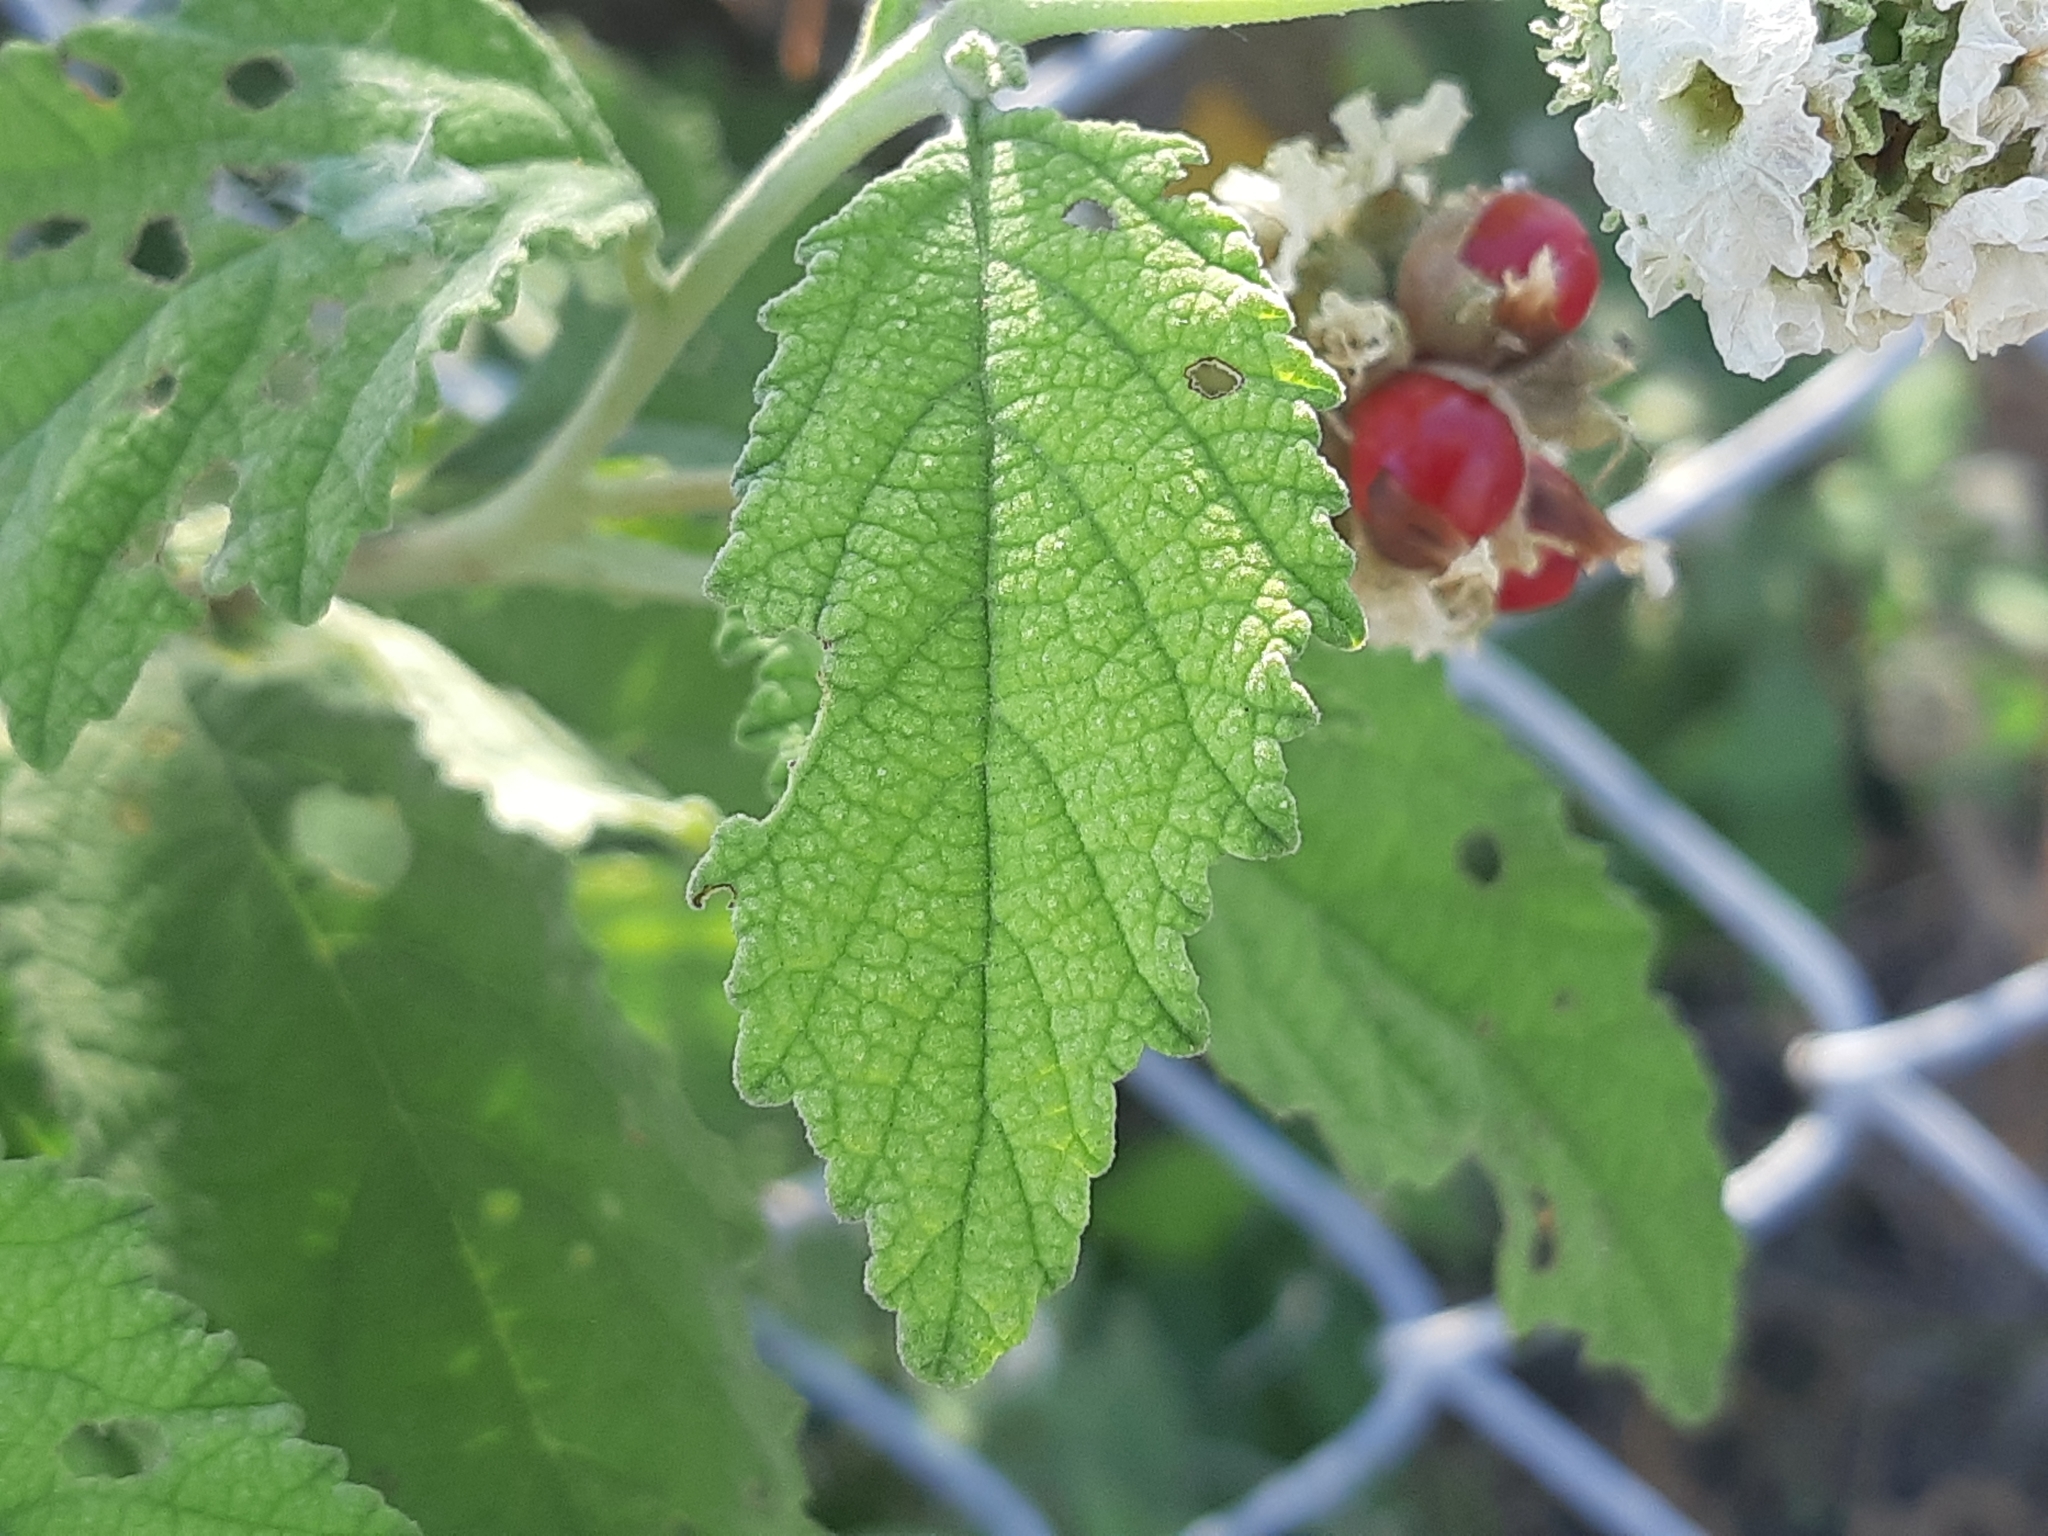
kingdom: Plantae
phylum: Tracheophyta
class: Magnoliopsida
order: Boraginales
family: Cordiaceae
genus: Varronia
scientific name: Varronia macrocephala
